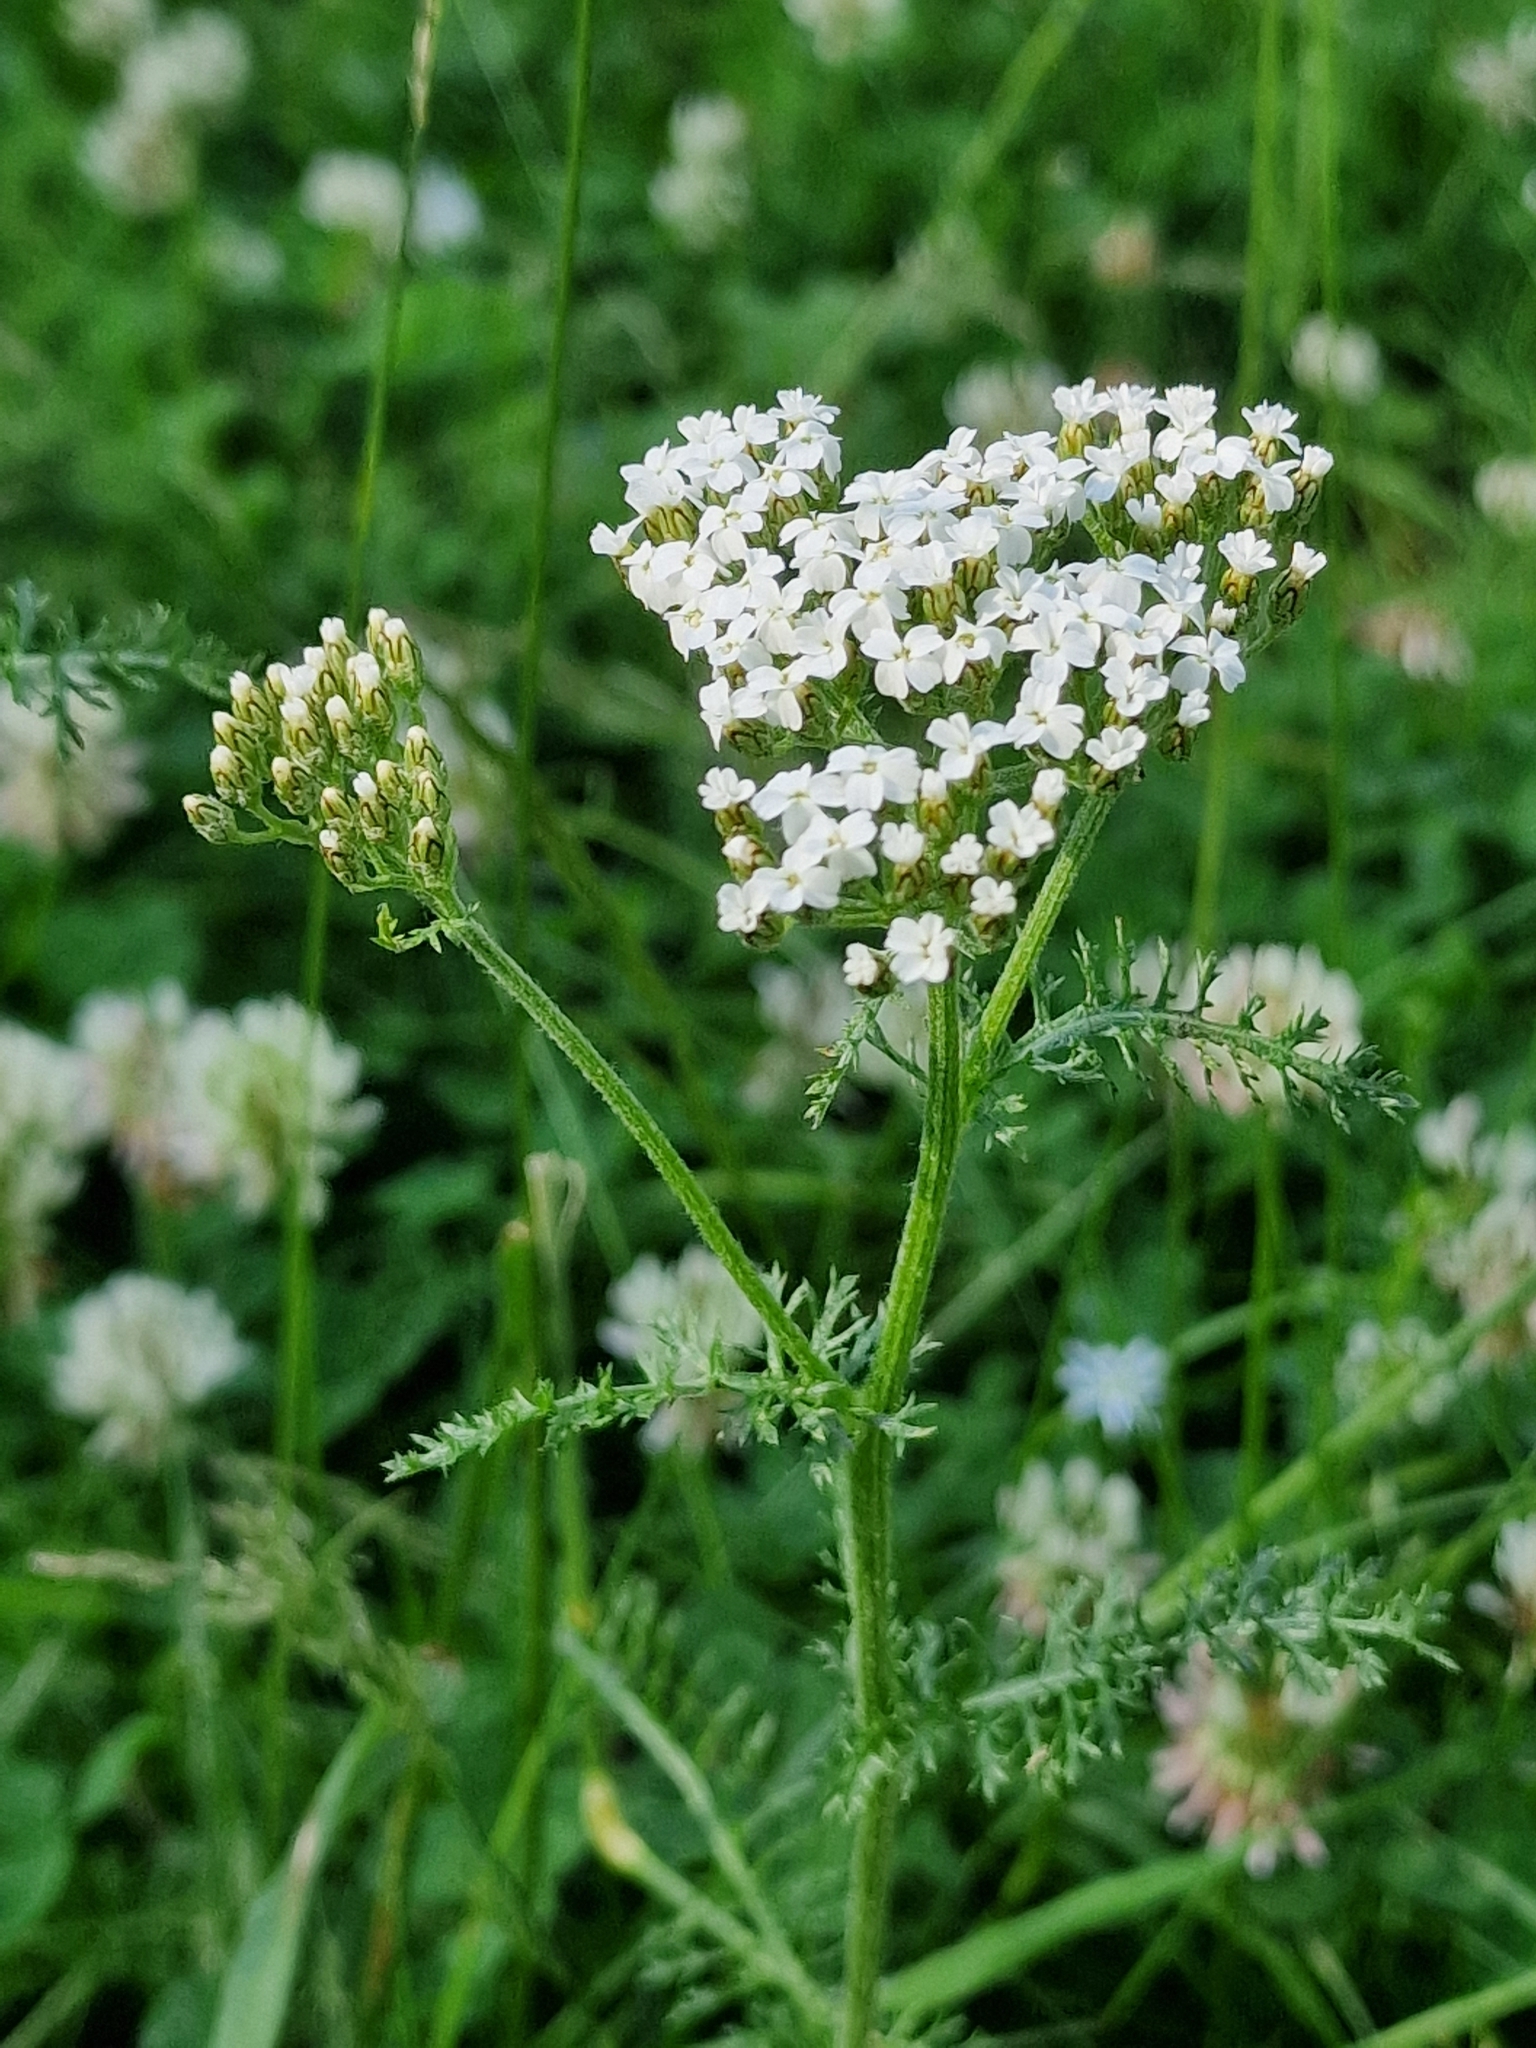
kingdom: Plantae
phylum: Tracheophyta
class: Magnoliopsida
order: Asterales
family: Asteraceae
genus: Achillea
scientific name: Achillea millefolium
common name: Yarrow
